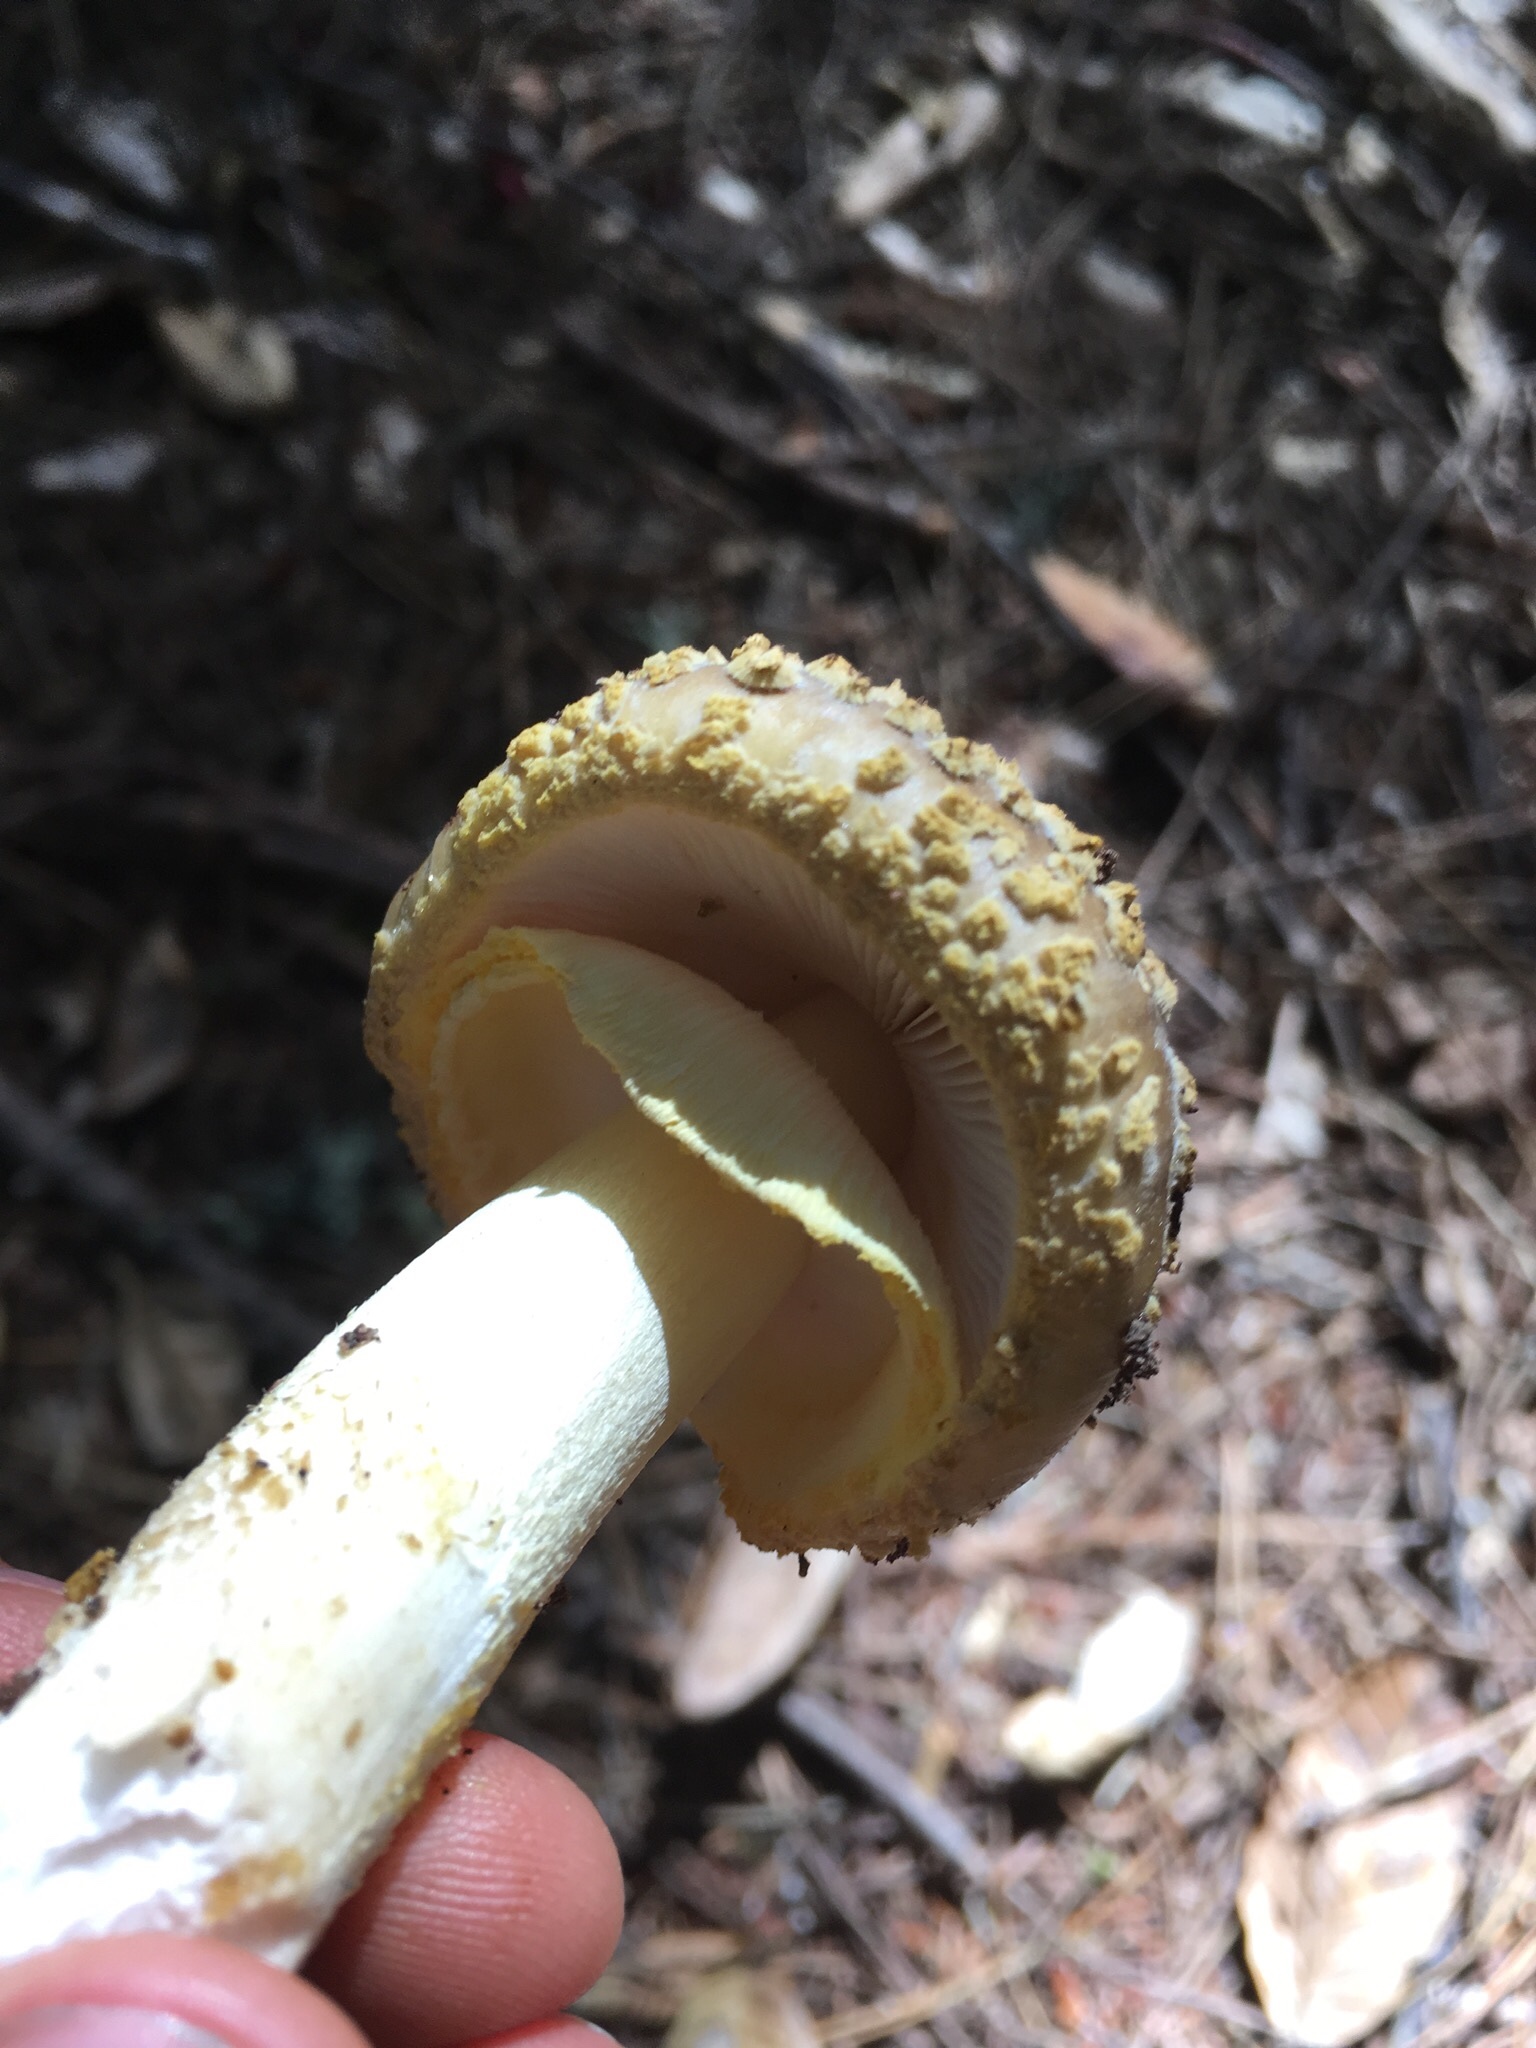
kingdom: Fungi
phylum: Basidiomycota
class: Agaricomycetes
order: Agaricales
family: Amanitaceae
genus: Amanita
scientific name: Amanita augusta
